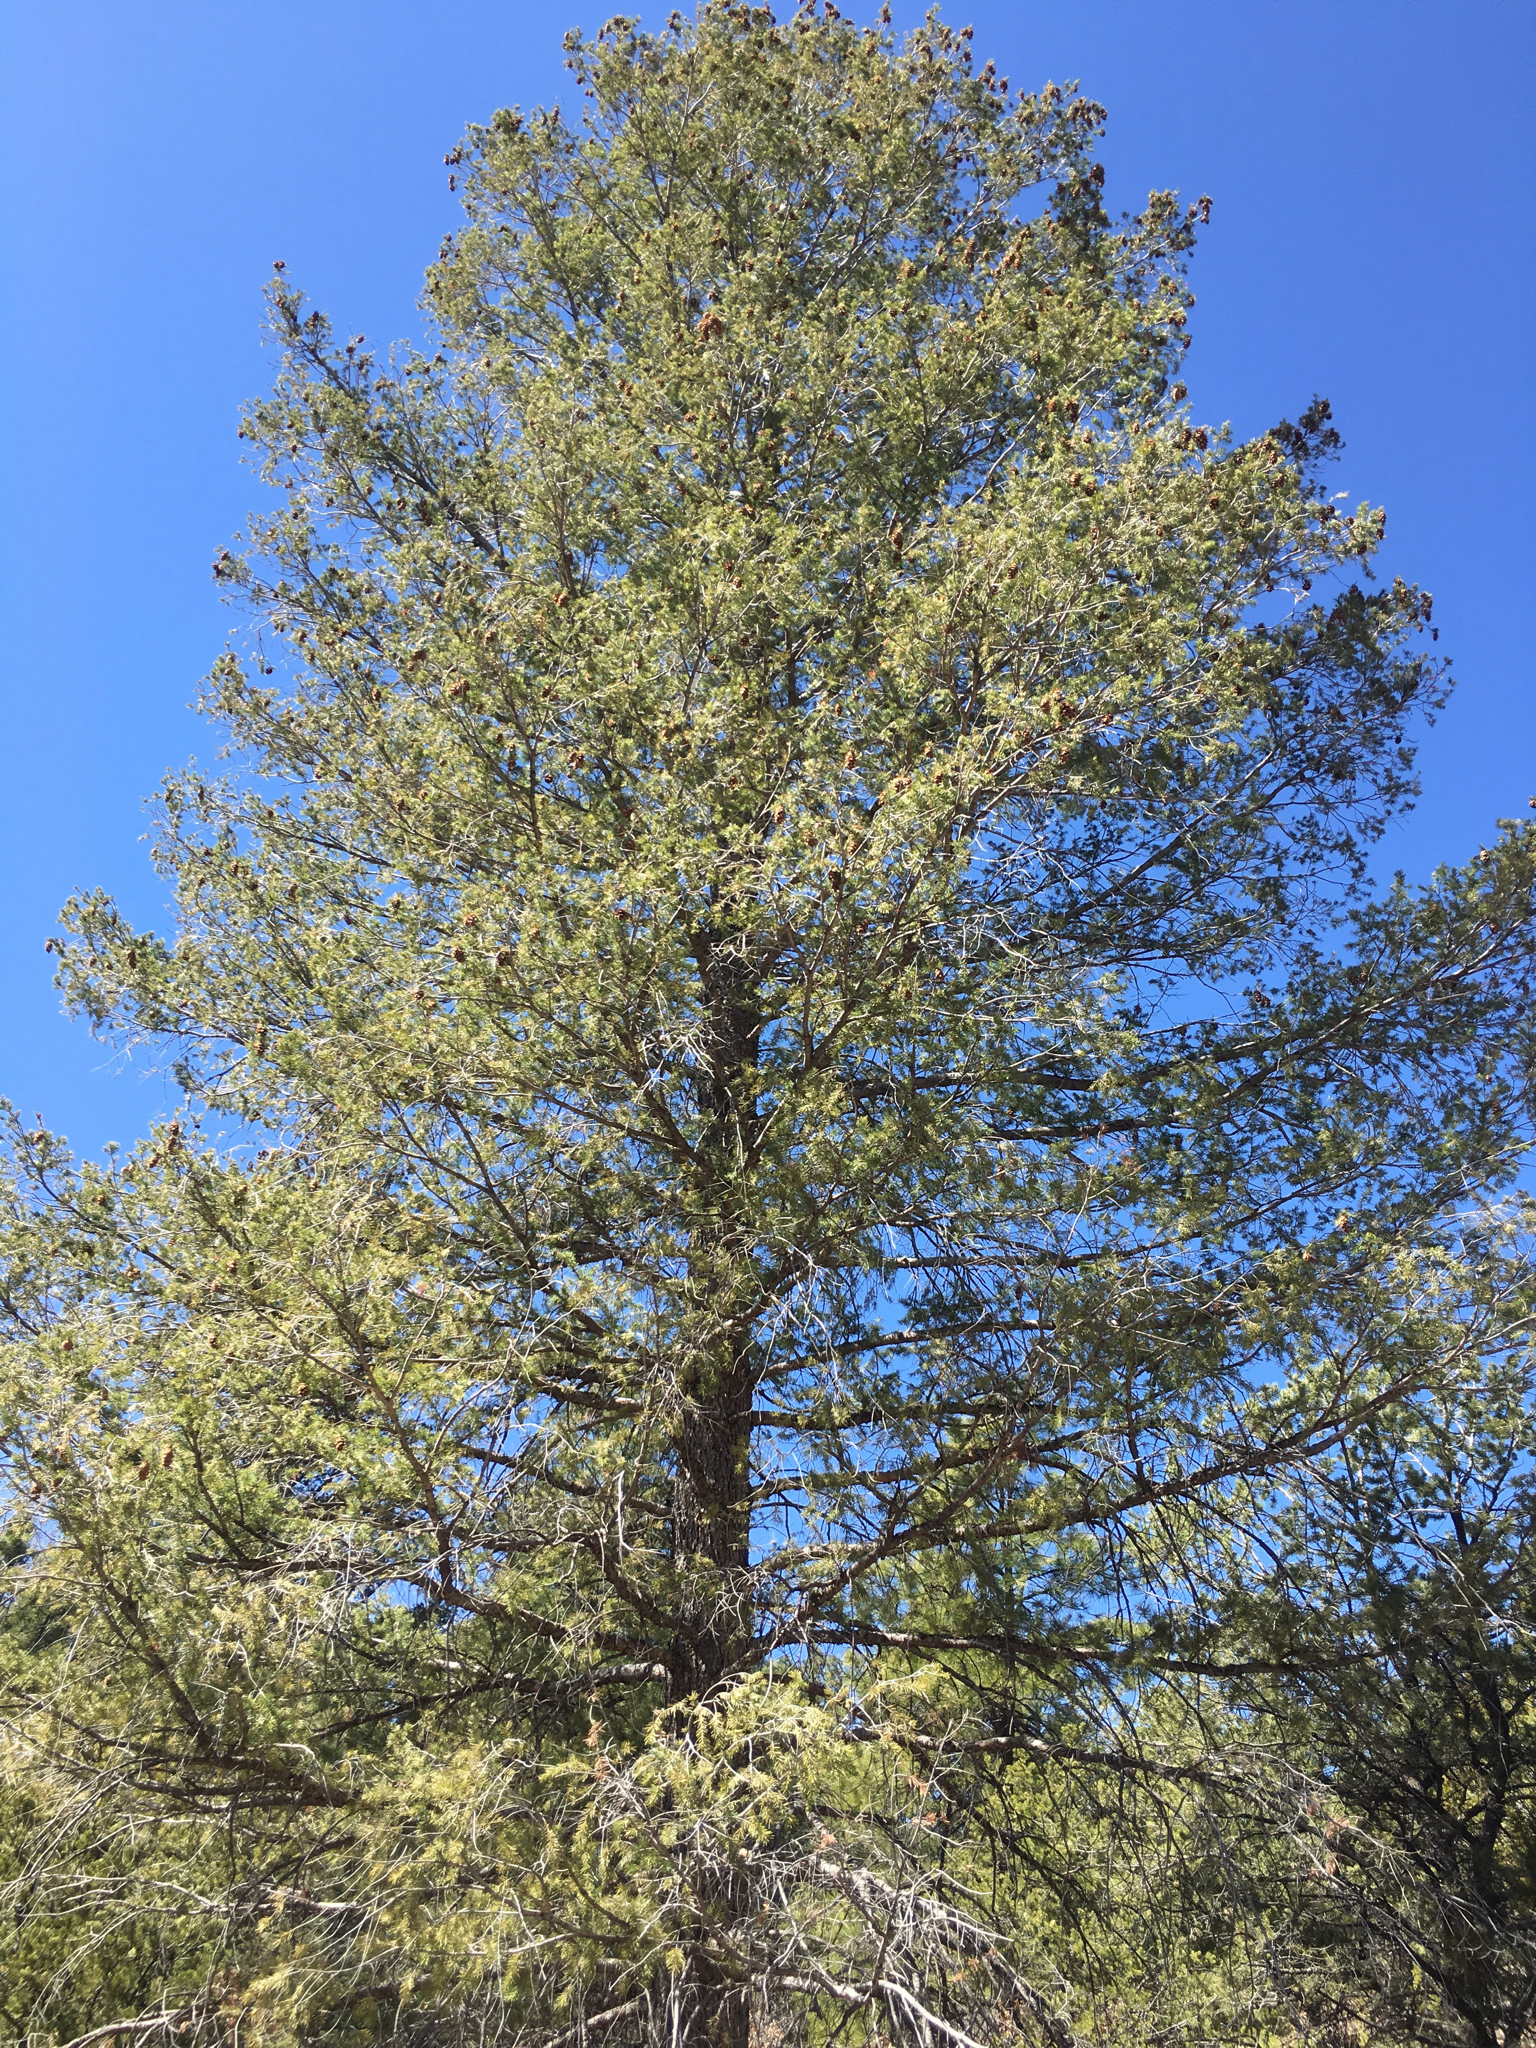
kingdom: Plantae
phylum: Tracheophyta
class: Pinopsida
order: Pinales
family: Pinaceae
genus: Pseudotsuga
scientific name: Pseudotsuga menziesii
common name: Douglas fir
